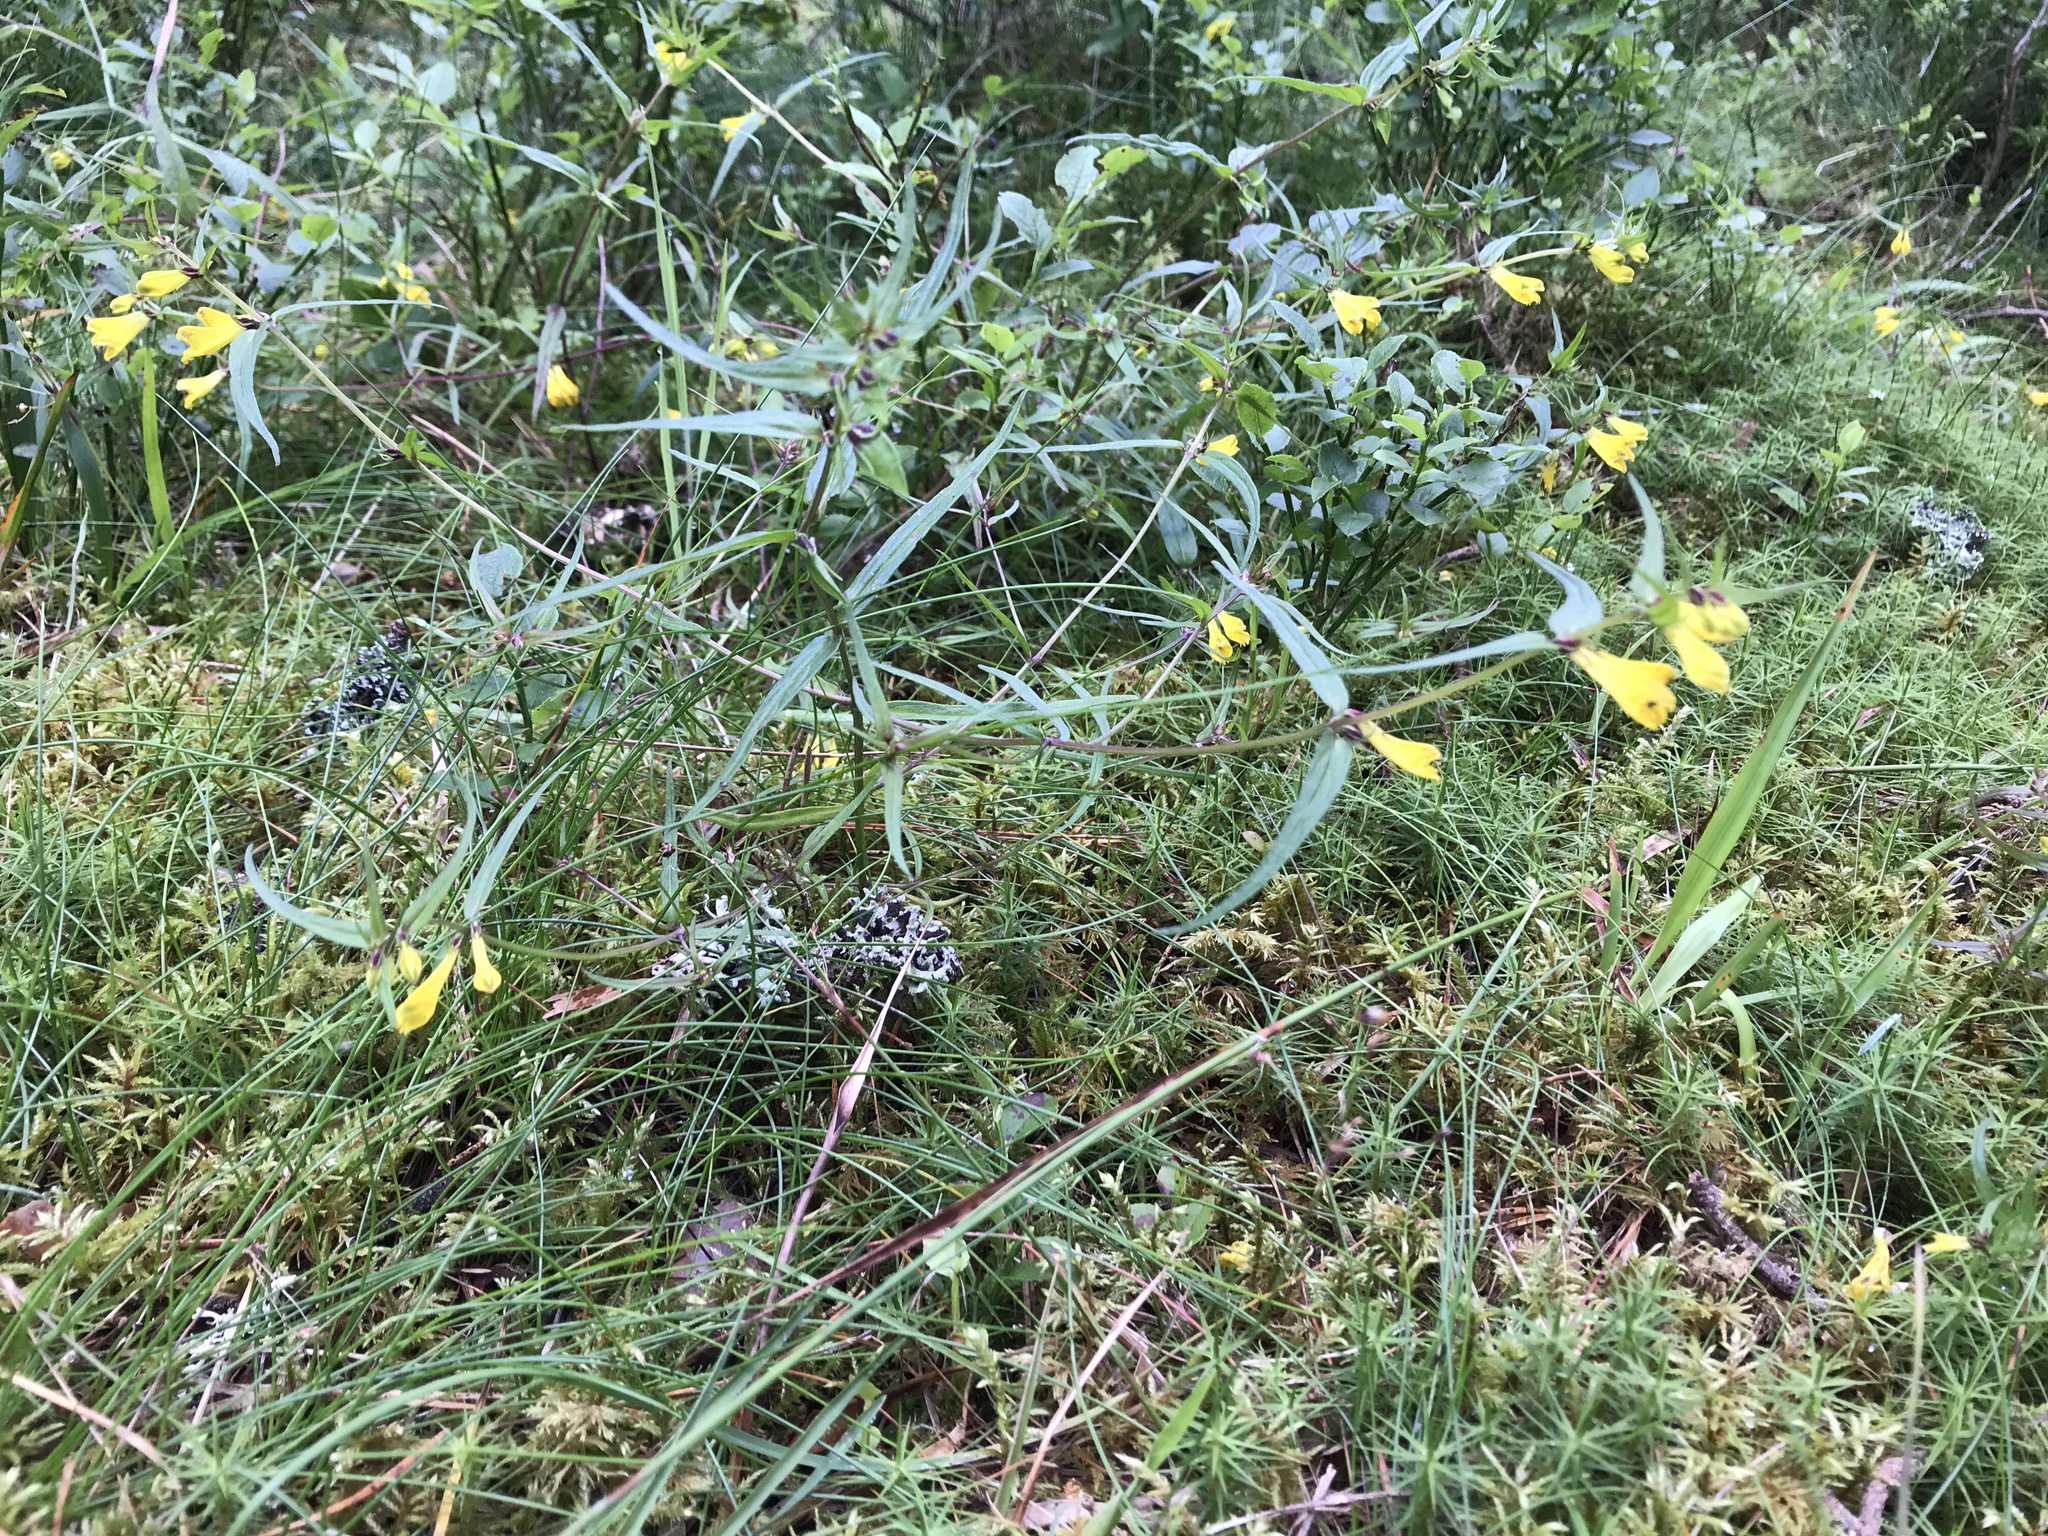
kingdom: Plantae
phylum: Tracheophyta
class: Magnoliopsida
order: Lamiales
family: Orobanchaceae
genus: Melampyrum
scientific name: Melampyrum pratense
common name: Common cow-wheat
